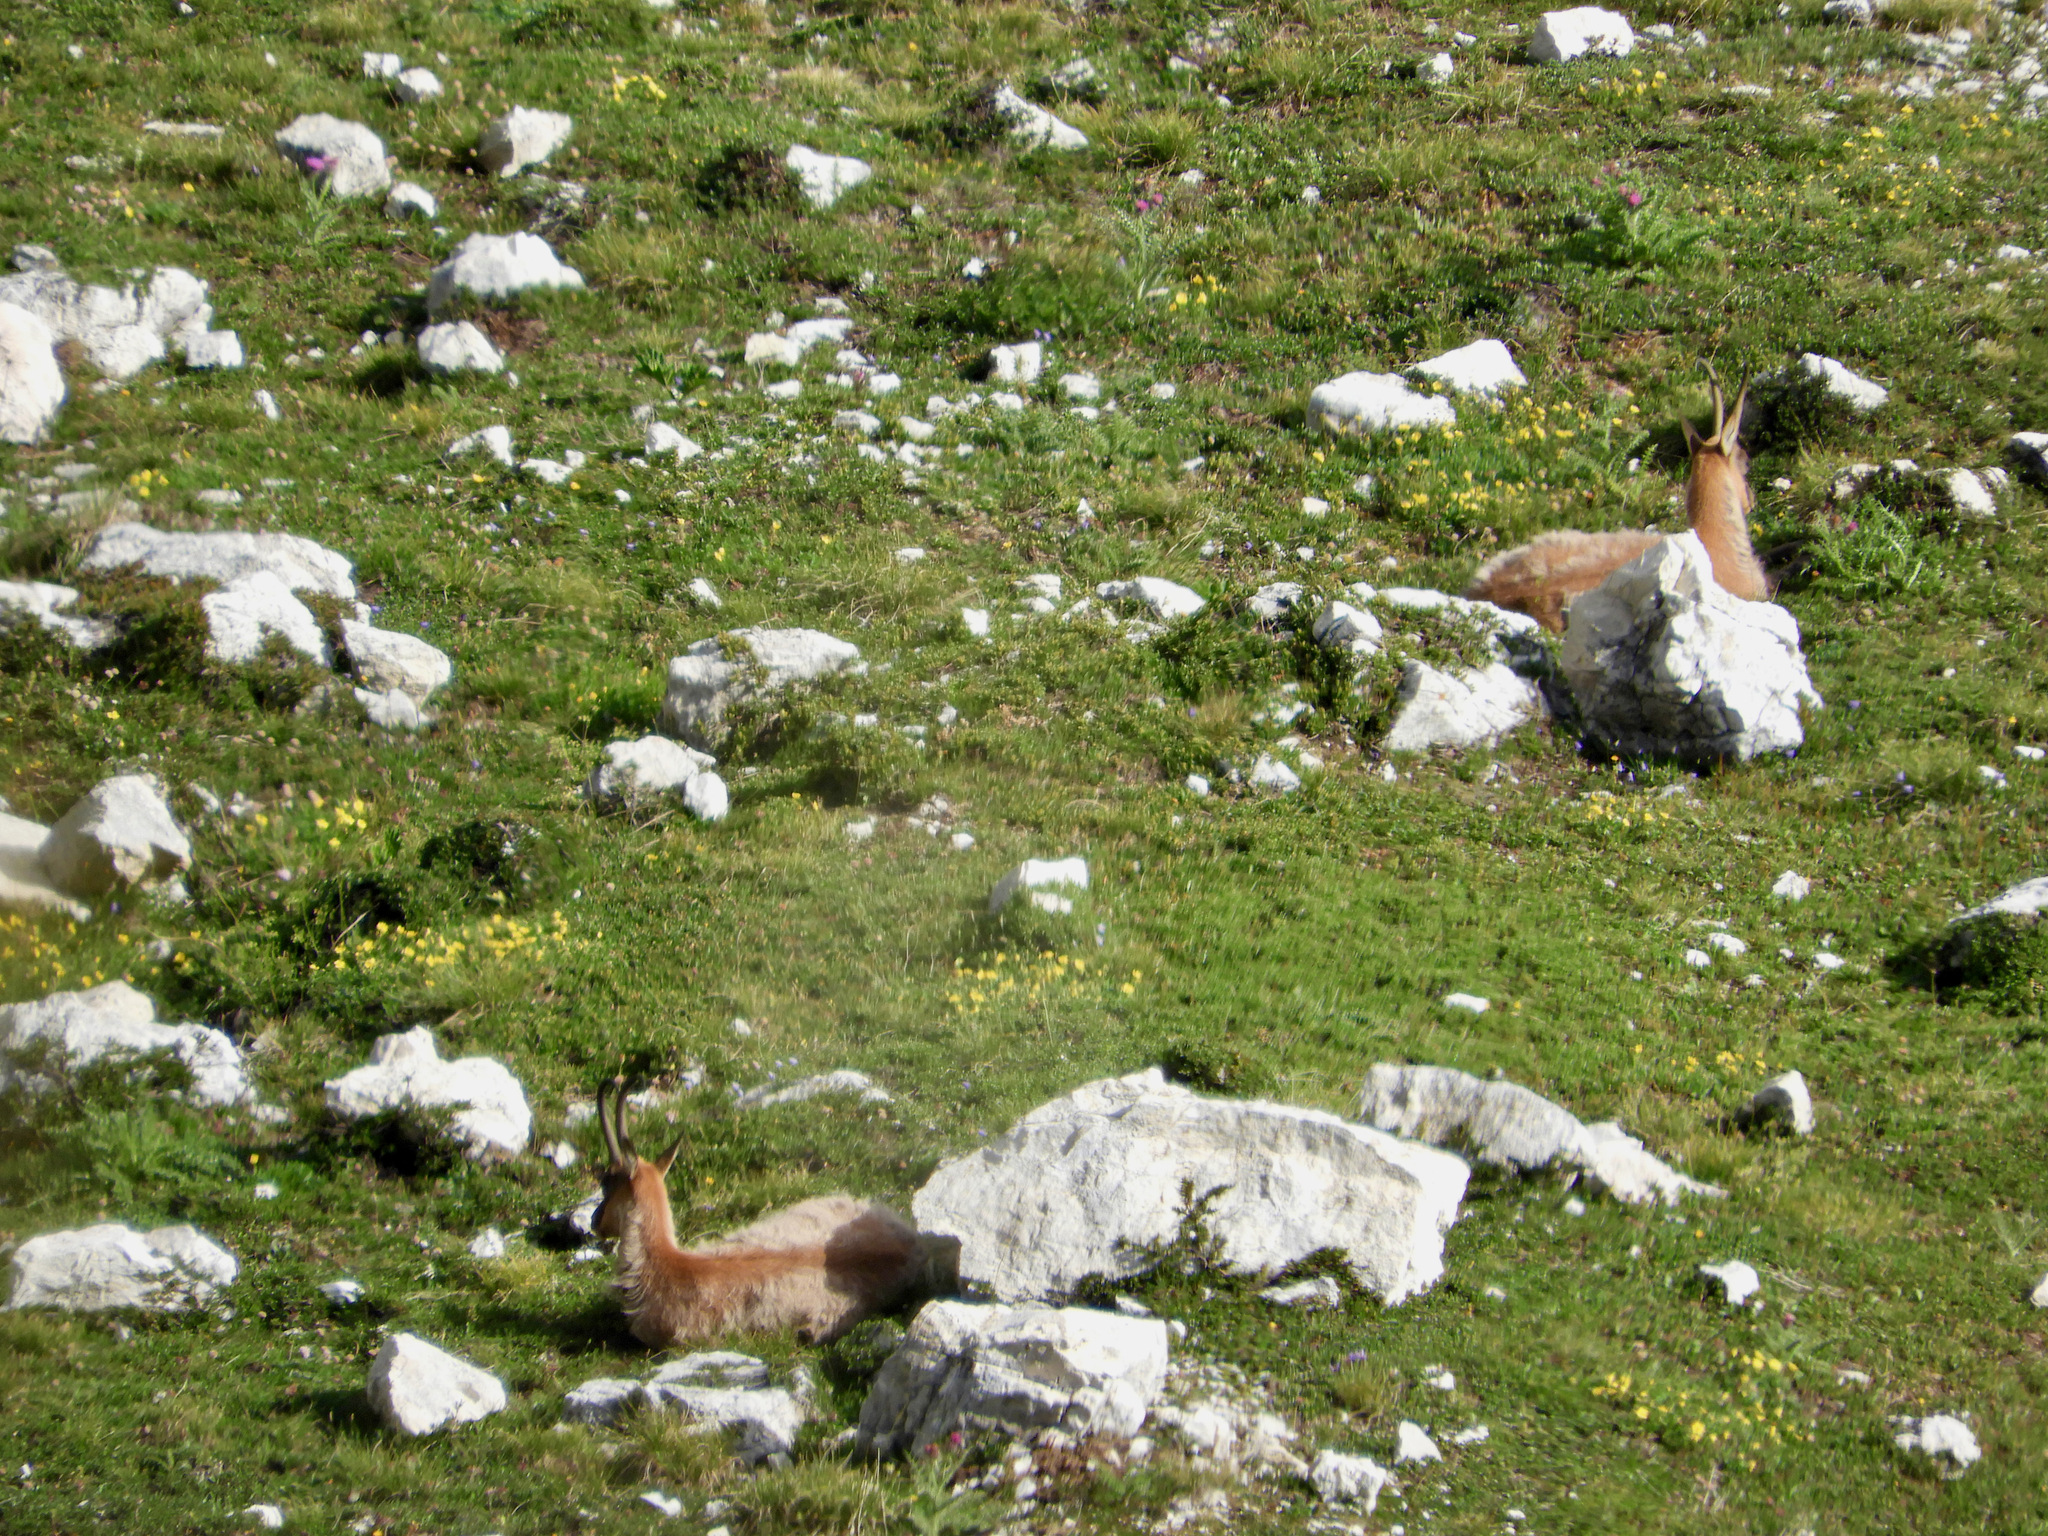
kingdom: Animalia
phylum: Chordata
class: Mammalia
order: Artiodactyla
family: Bovidae
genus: Rupicapra
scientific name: Rupicapra pyrenaica
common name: Pyrenean chamois
